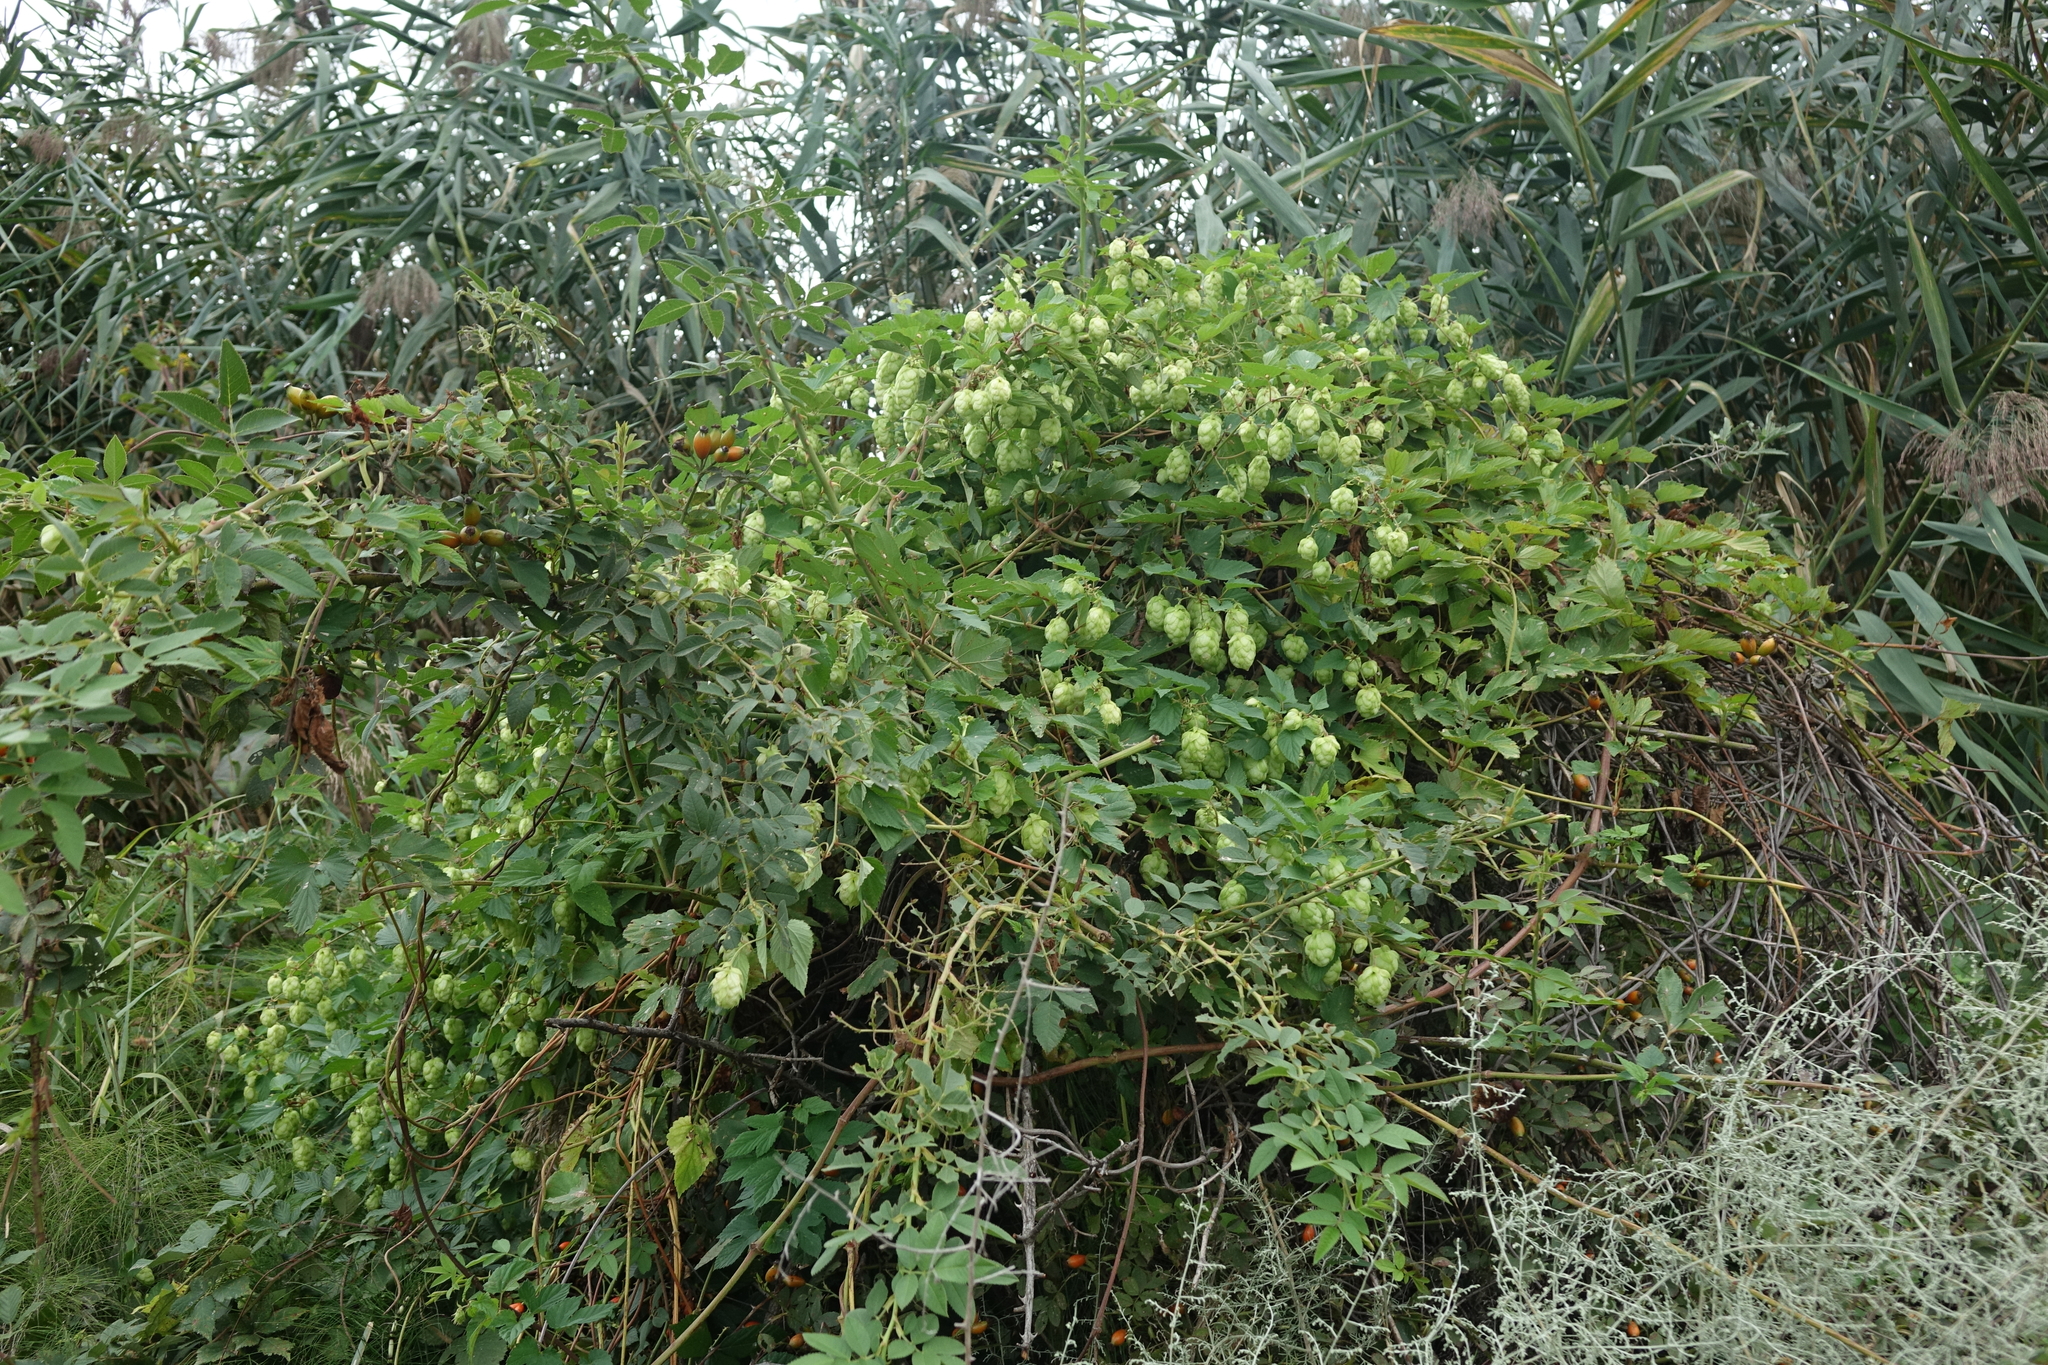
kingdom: Plantae
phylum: Tracheophyta
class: Magnoliopsida
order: Rosales
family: Cannabaceae
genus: Humulus
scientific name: Humulus lupulus
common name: Hop
